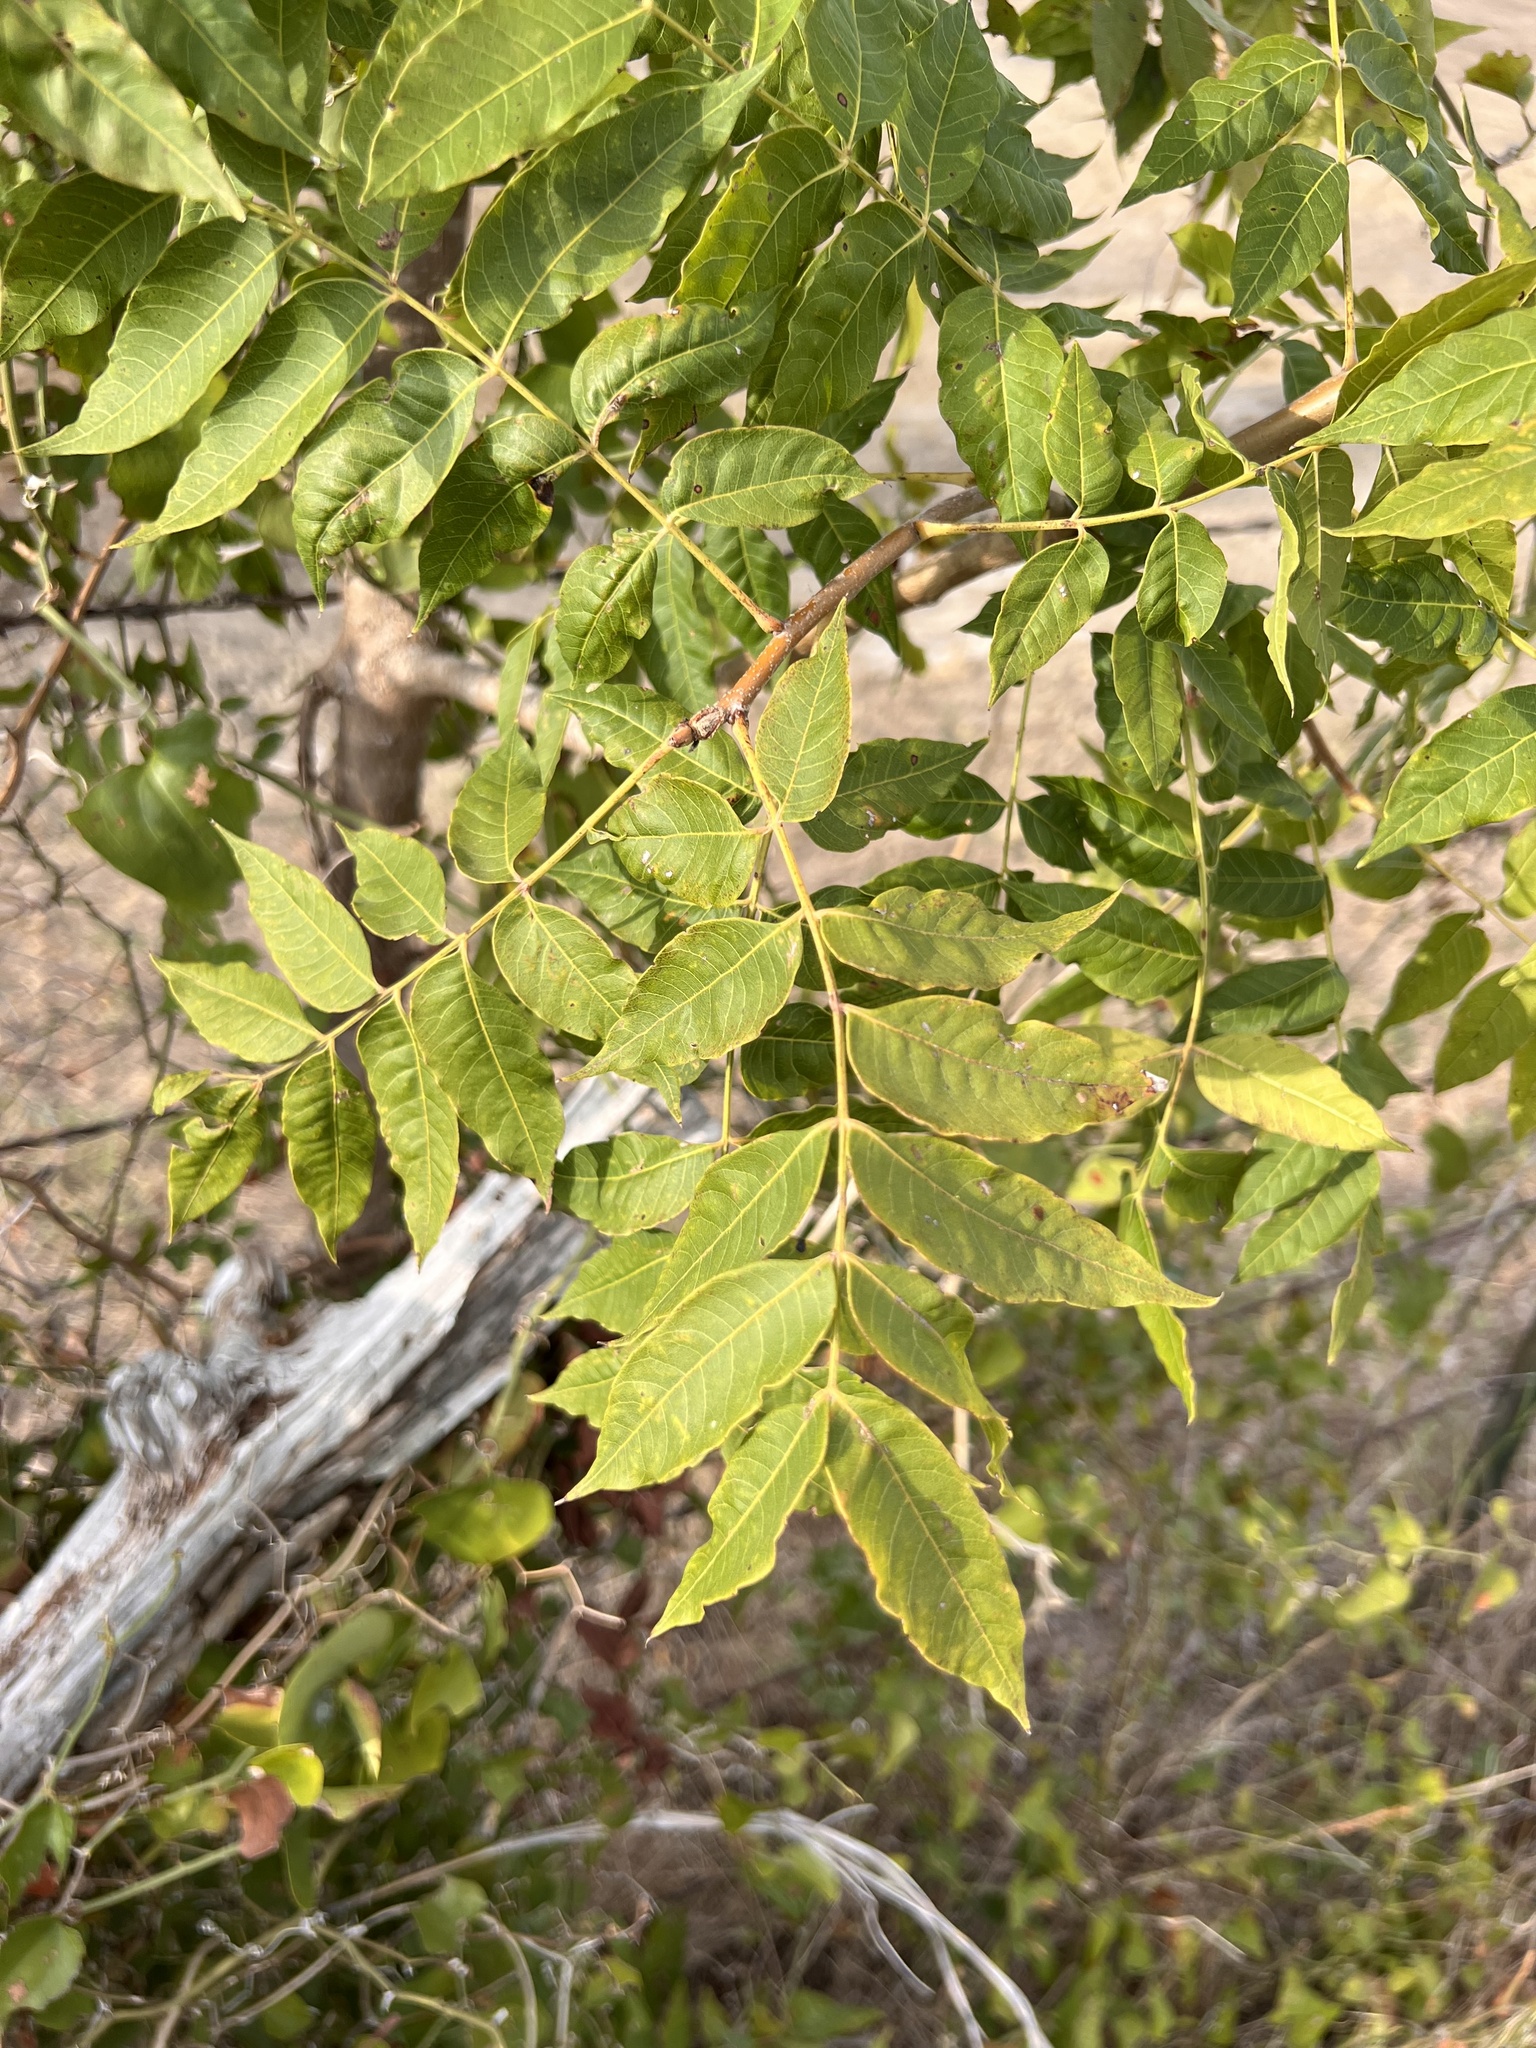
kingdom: Plantae
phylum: Tracheophyta
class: Magnoliopsida
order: Sapindales
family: Anacardiaceae
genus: Pistacia
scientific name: Pistacia chinensis
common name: Chinese pistache
